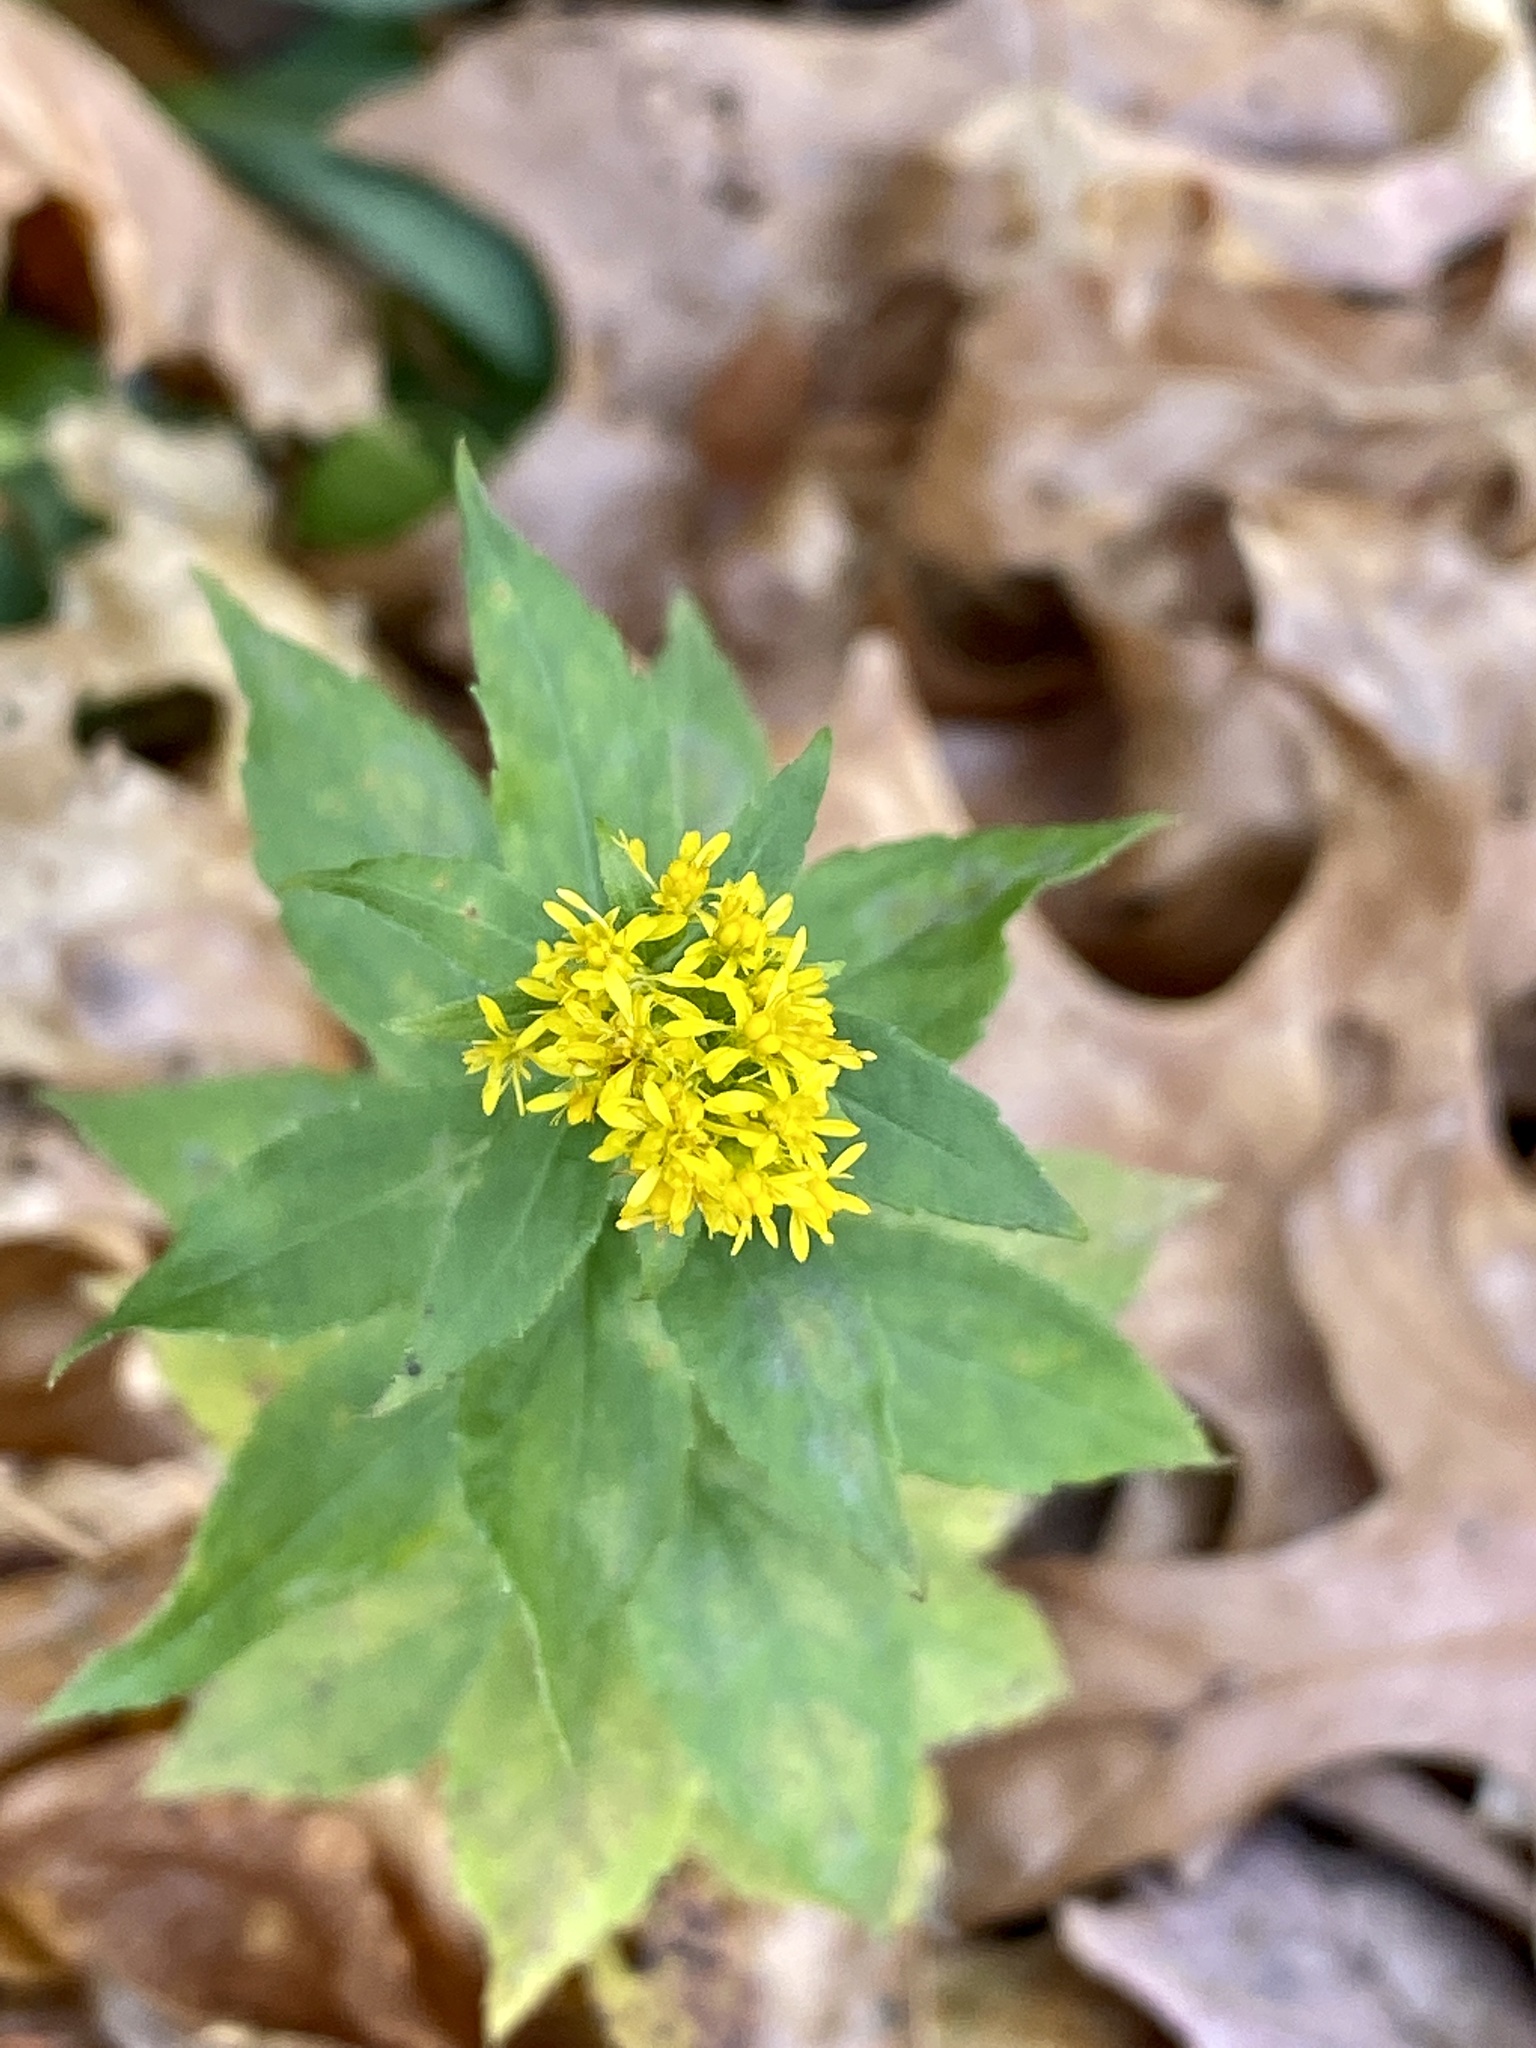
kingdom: Plantae
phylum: Tracheophyta
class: Magnoliopsida
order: Asterales
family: Asteraceae
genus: Solidago
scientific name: Solidago rugosa
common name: Rough-stemmed goldenrod
